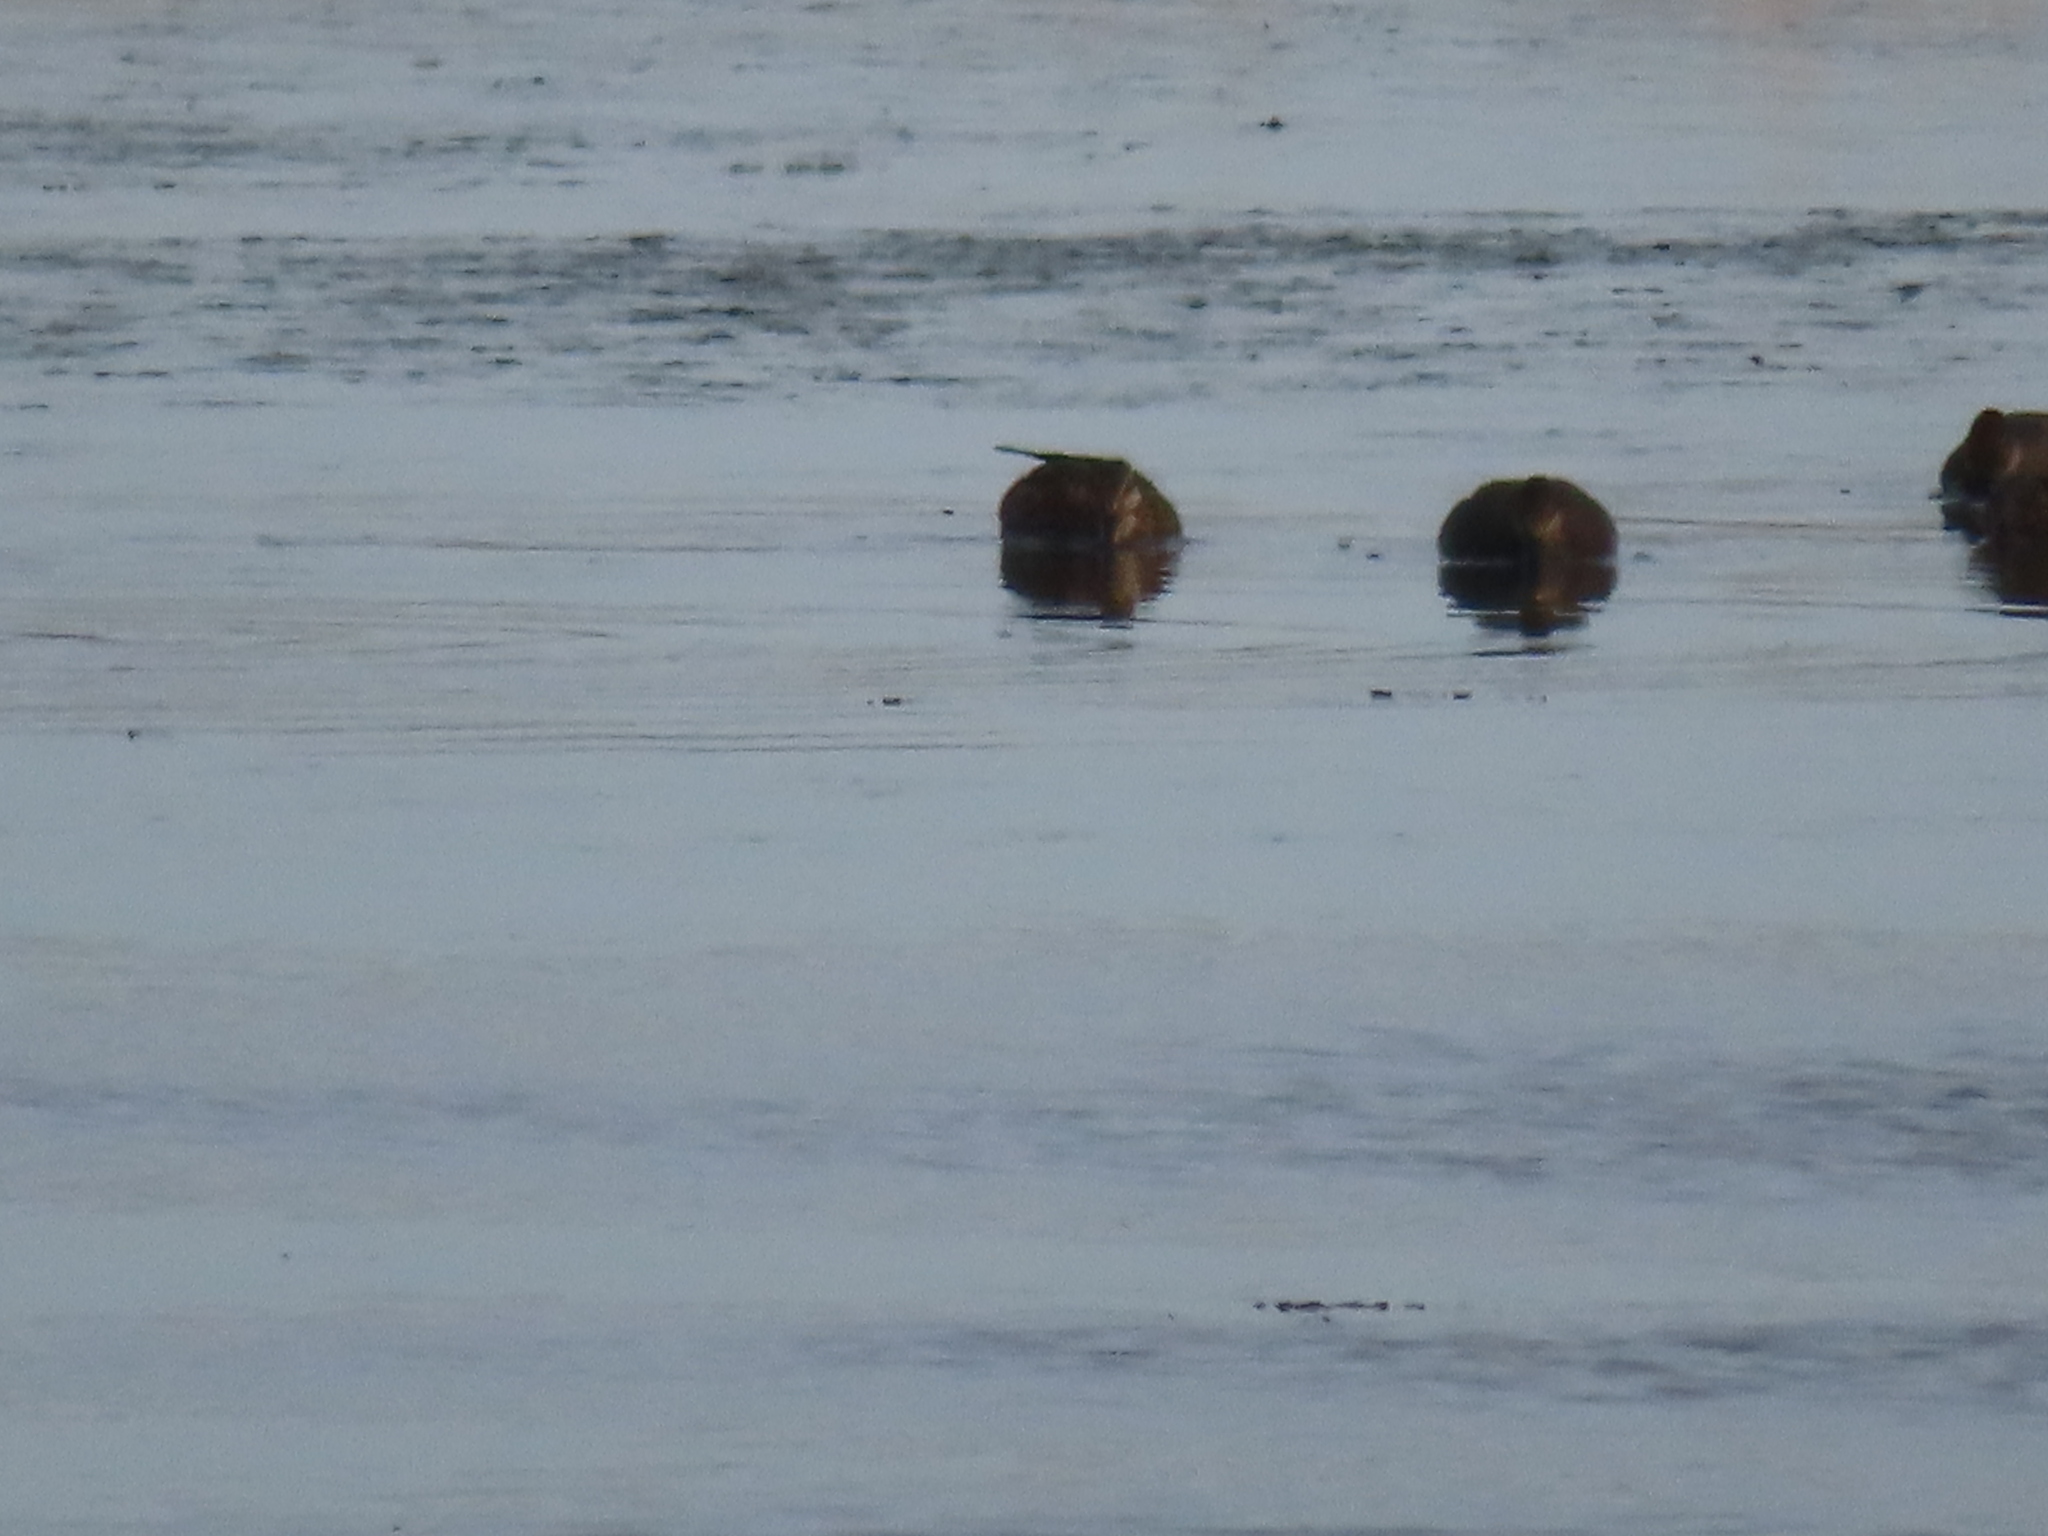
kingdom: Animalia
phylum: Chordata
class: Aves
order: Anseriformes
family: Anatidae
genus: Mareca
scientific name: Mareca strepera
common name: Gadwall
